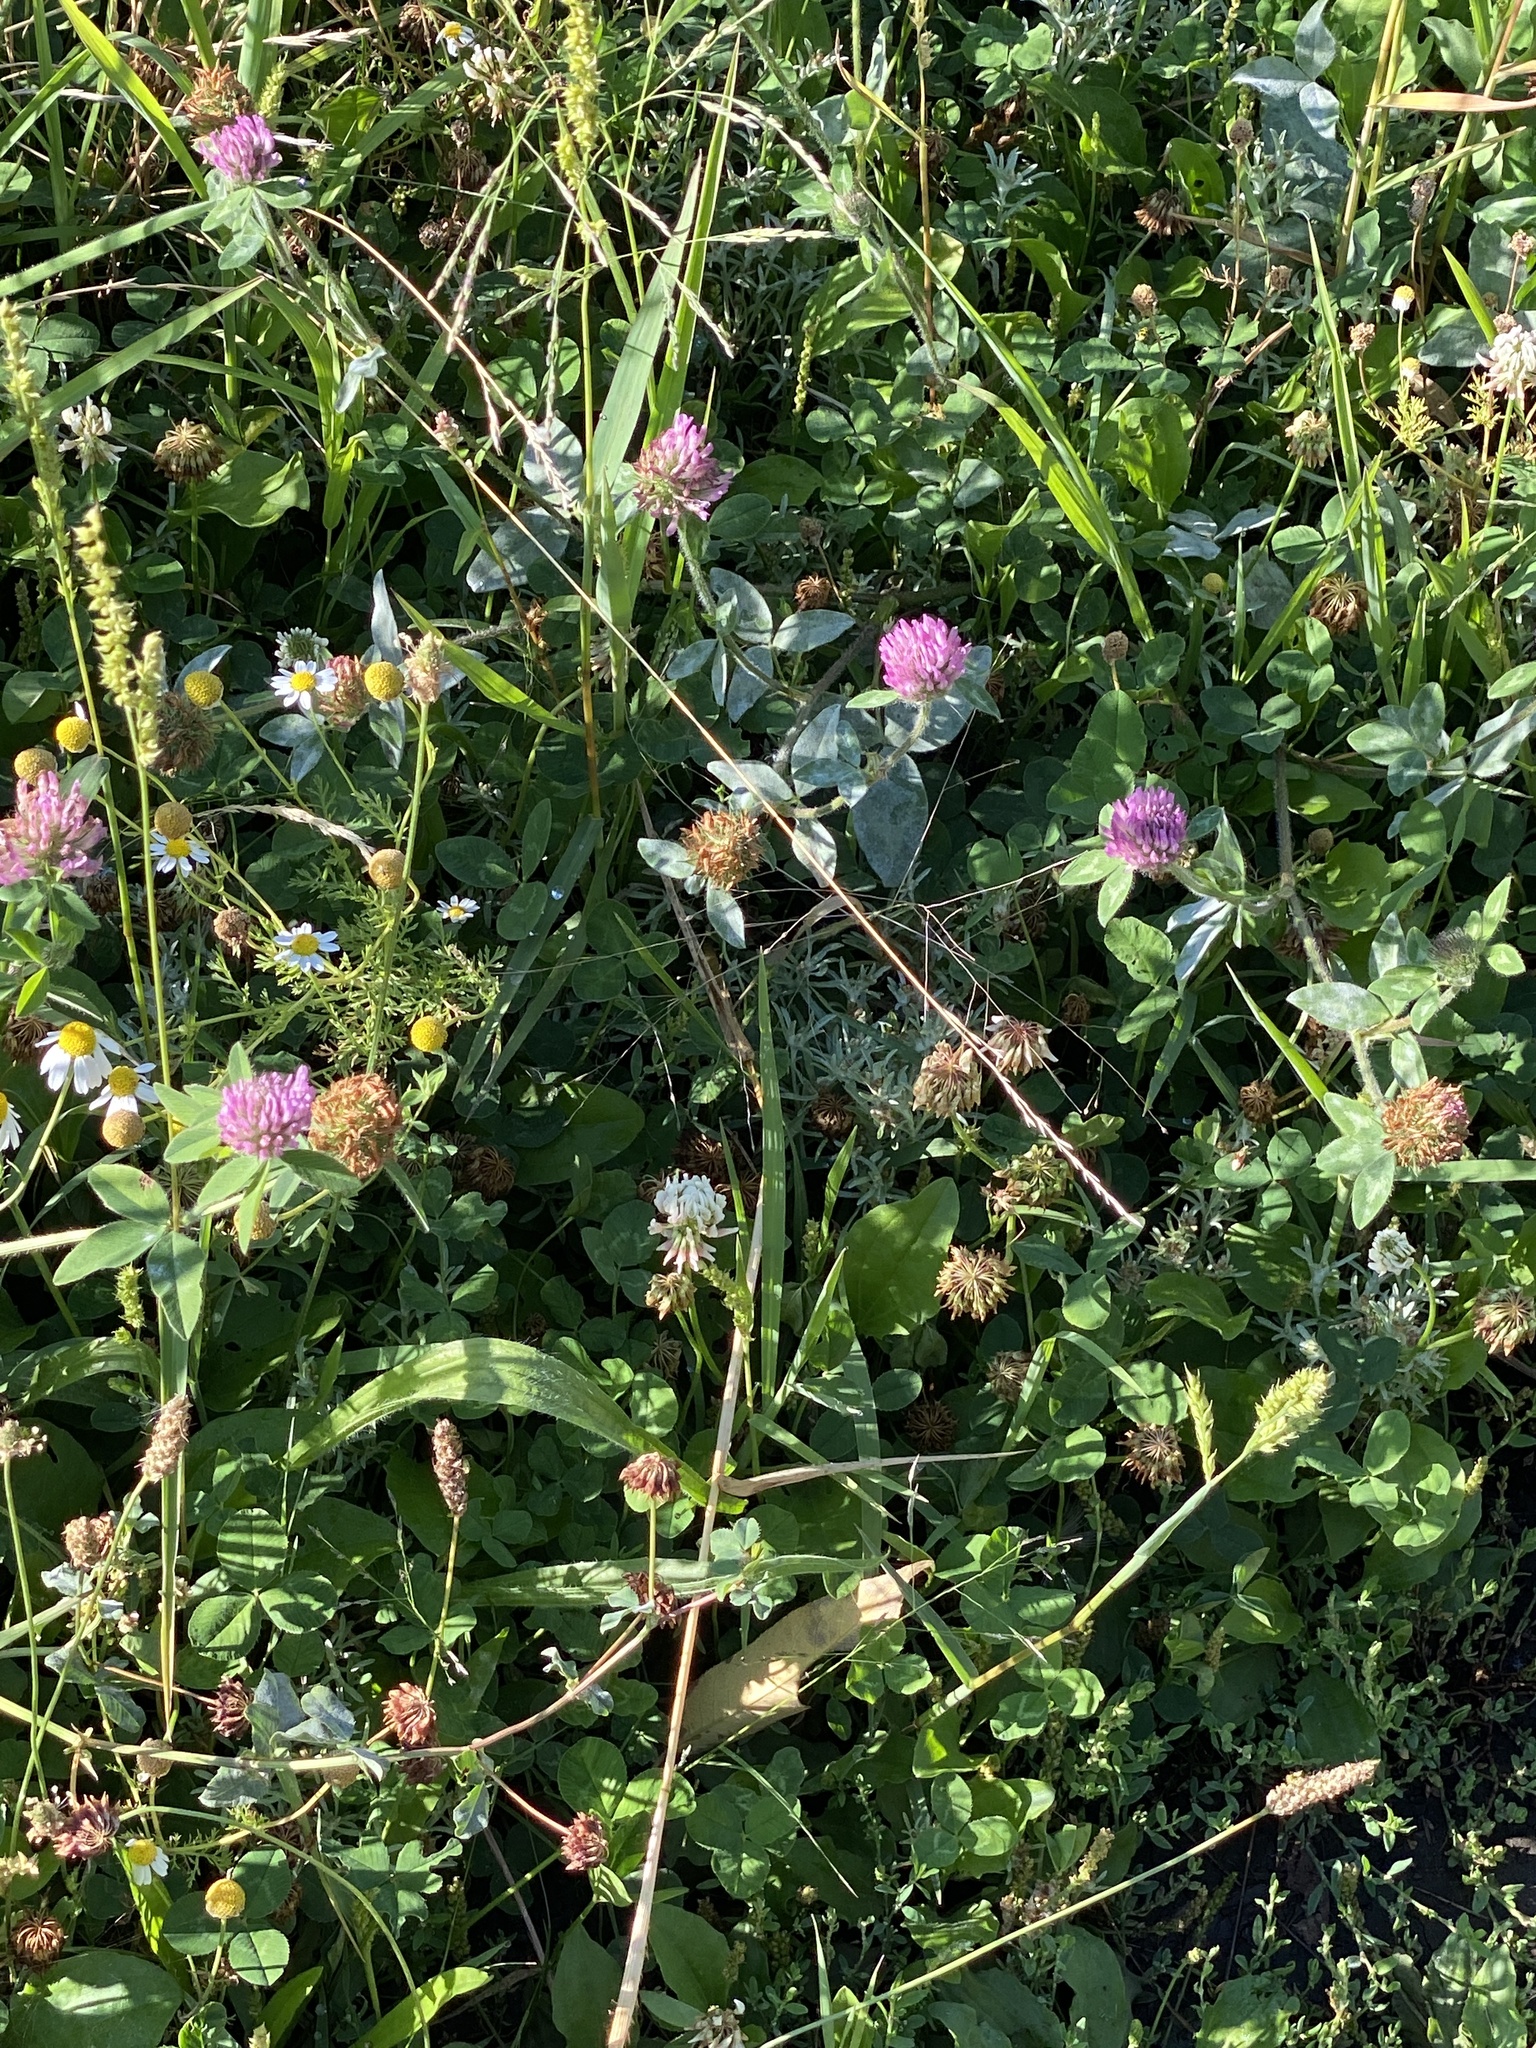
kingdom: Plantae
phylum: Tracheophyta
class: Magnoliopsida
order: Fabales
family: Fabaceae
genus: Trifolium
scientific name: Trifolium pratense
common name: Red clover
